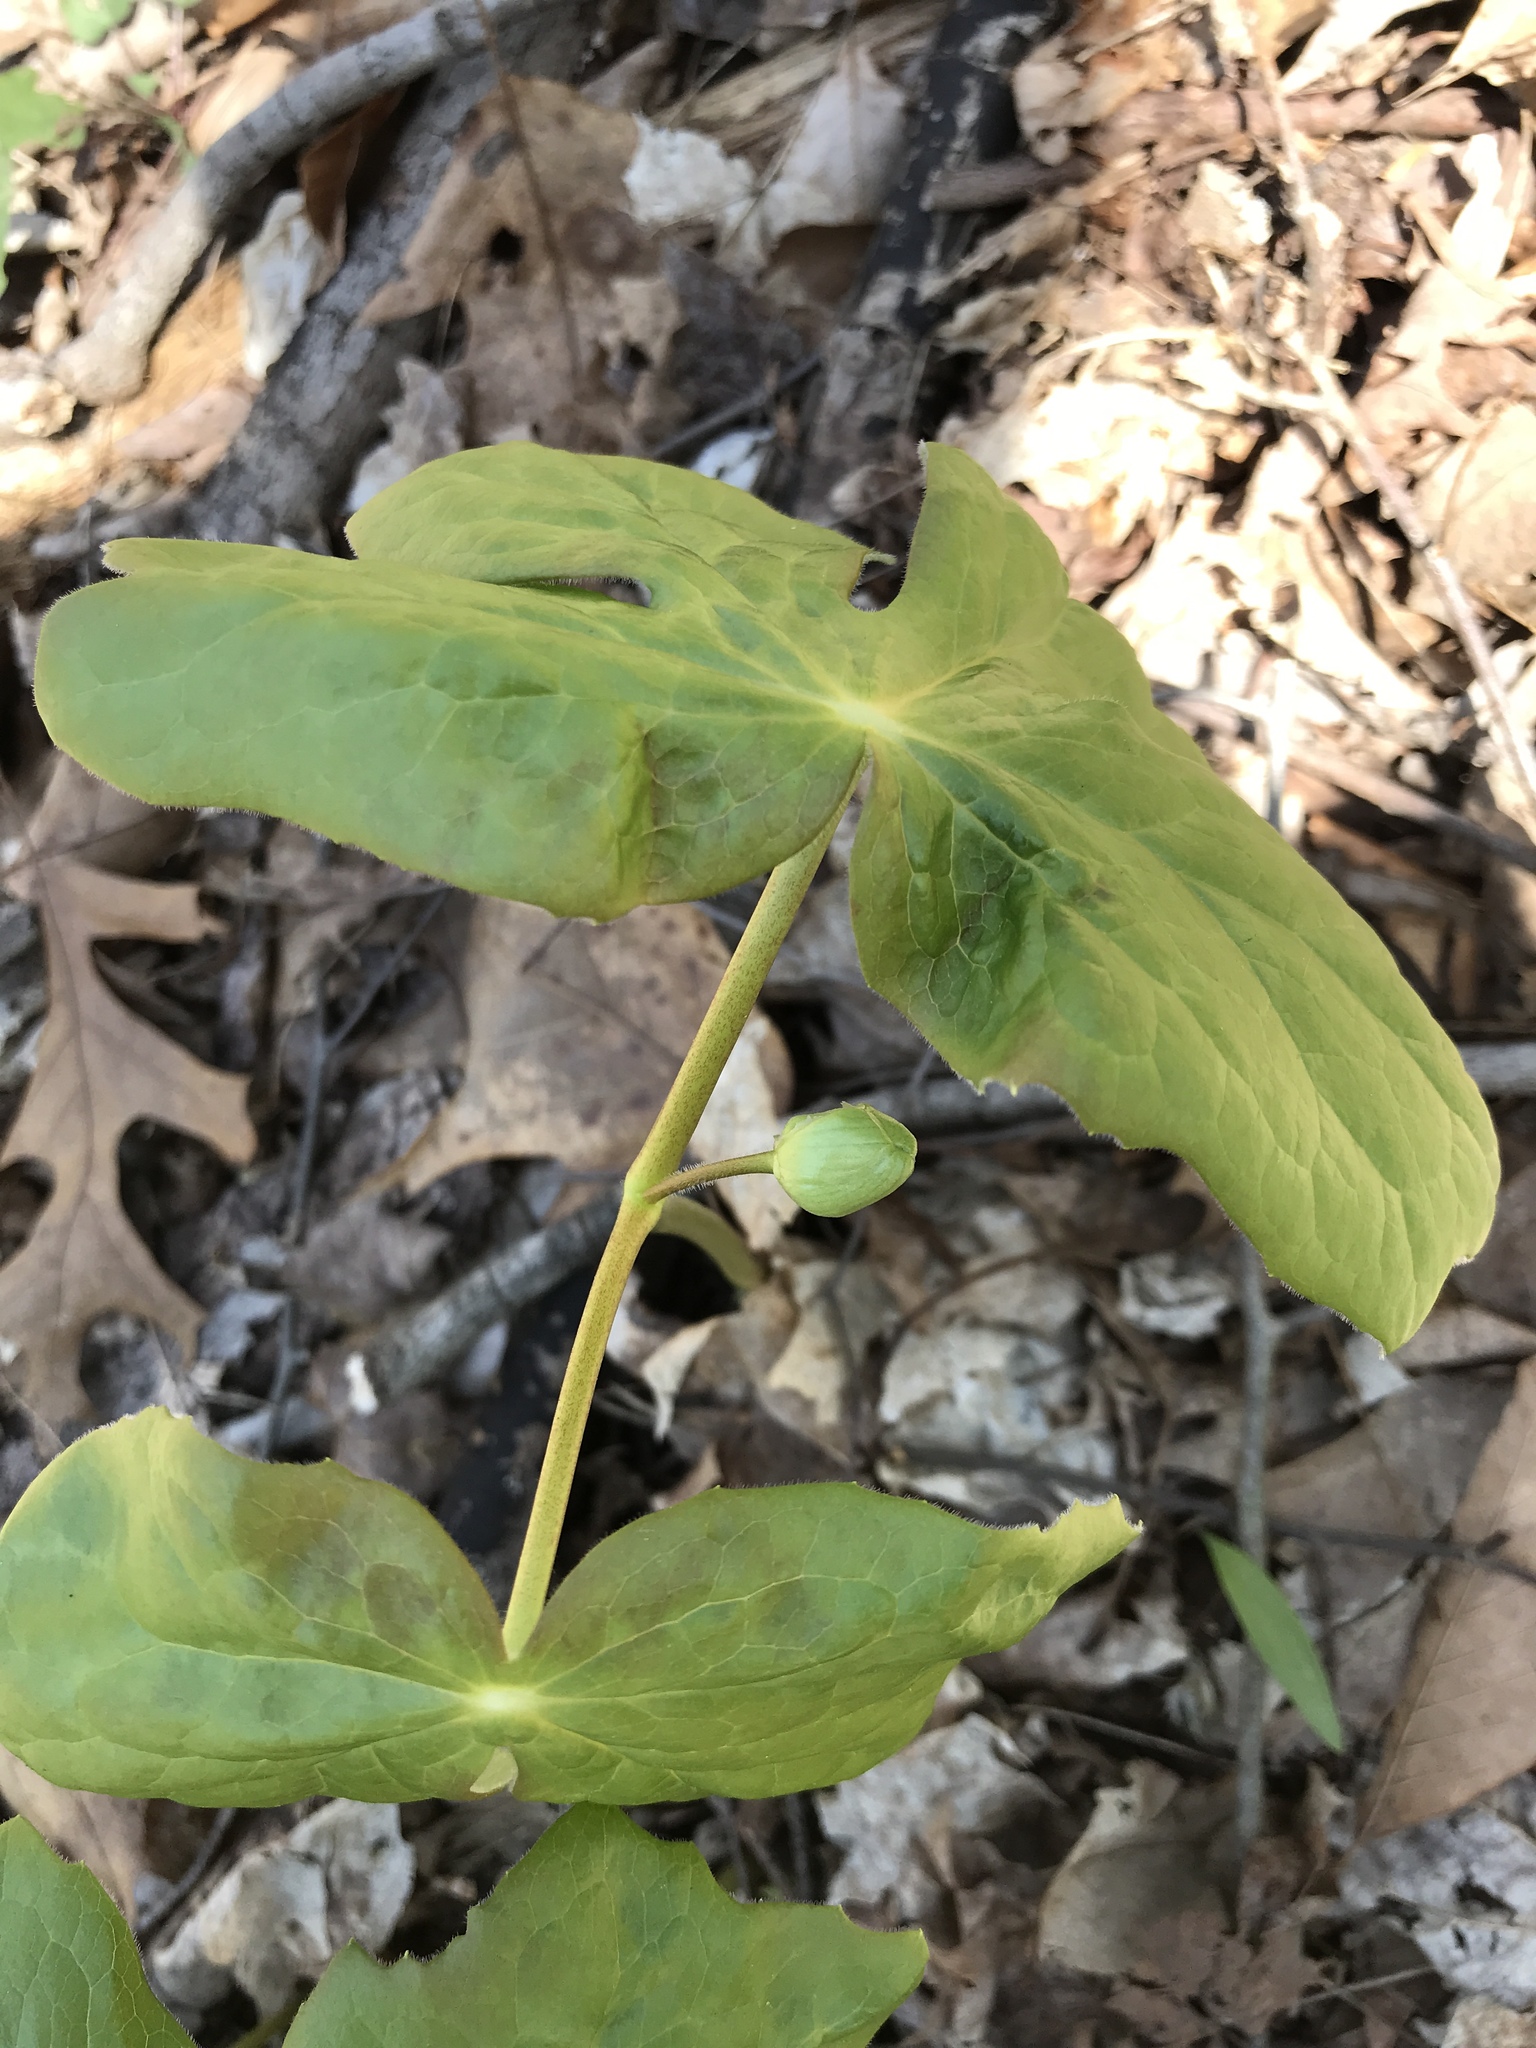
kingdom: Plantae
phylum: Tracheophyta
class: Magnoliopsida
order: Ranunculales
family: Berberidaceae
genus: Podophyllum
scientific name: Podophyllum peltatum
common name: Wild mandrake
